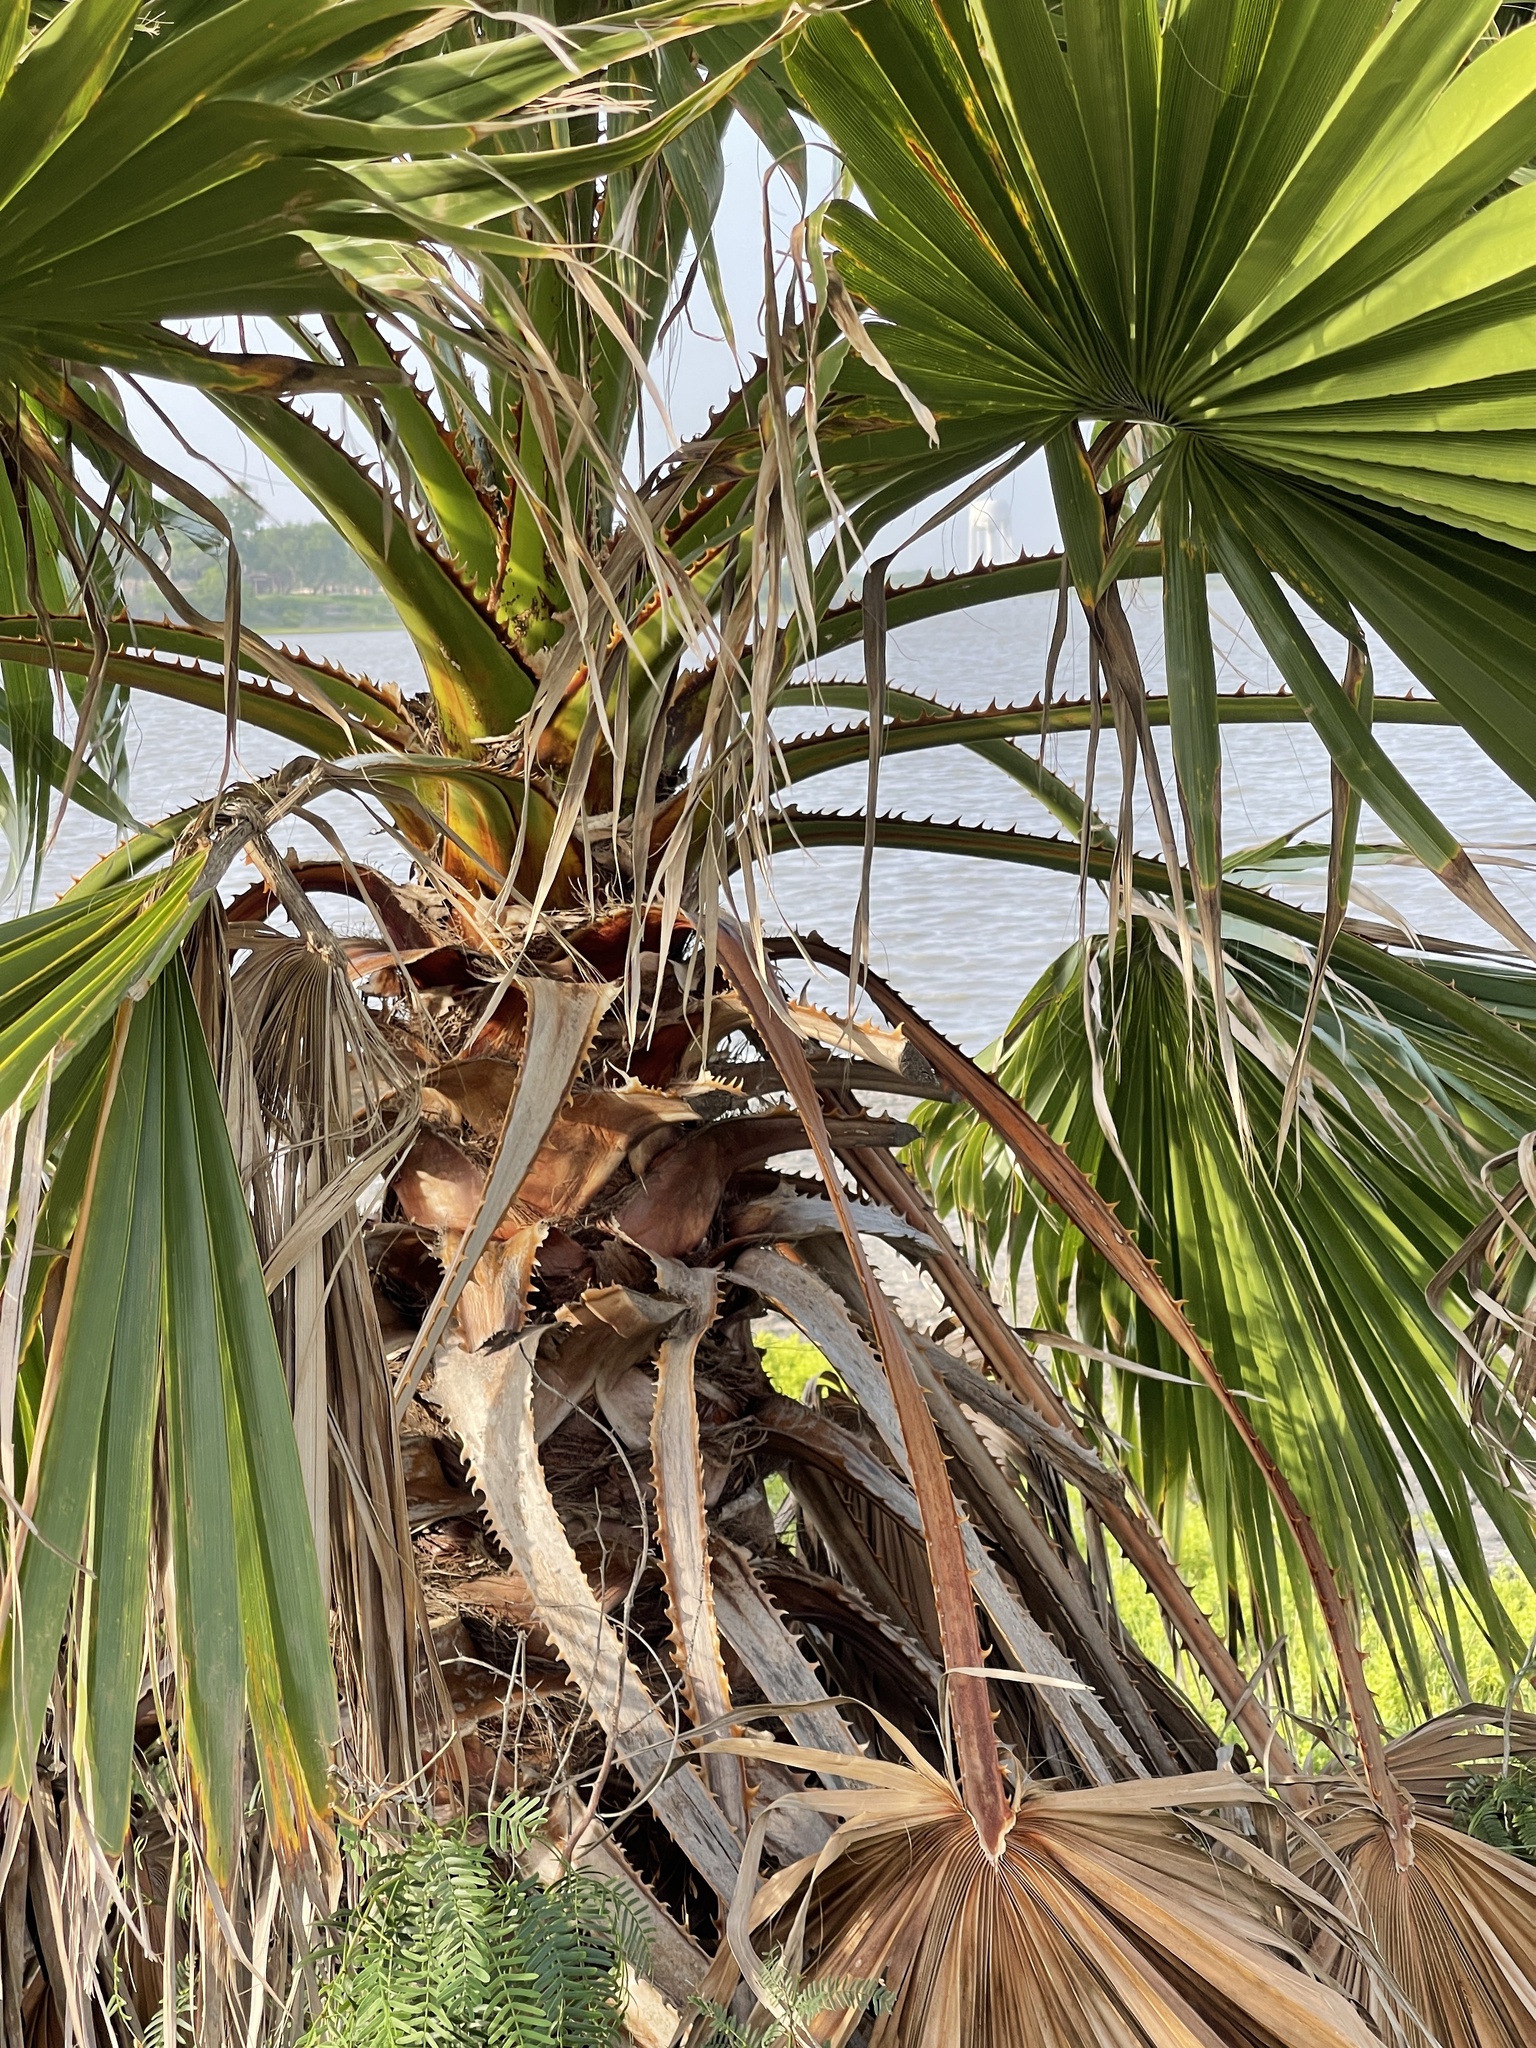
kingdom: Plantae
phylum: Tracheophyta
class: Liliopsida
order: Arecales
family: Arecaceae
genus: Washingtonia
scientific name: Washingtonia robusta
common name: Mexican fan palm
